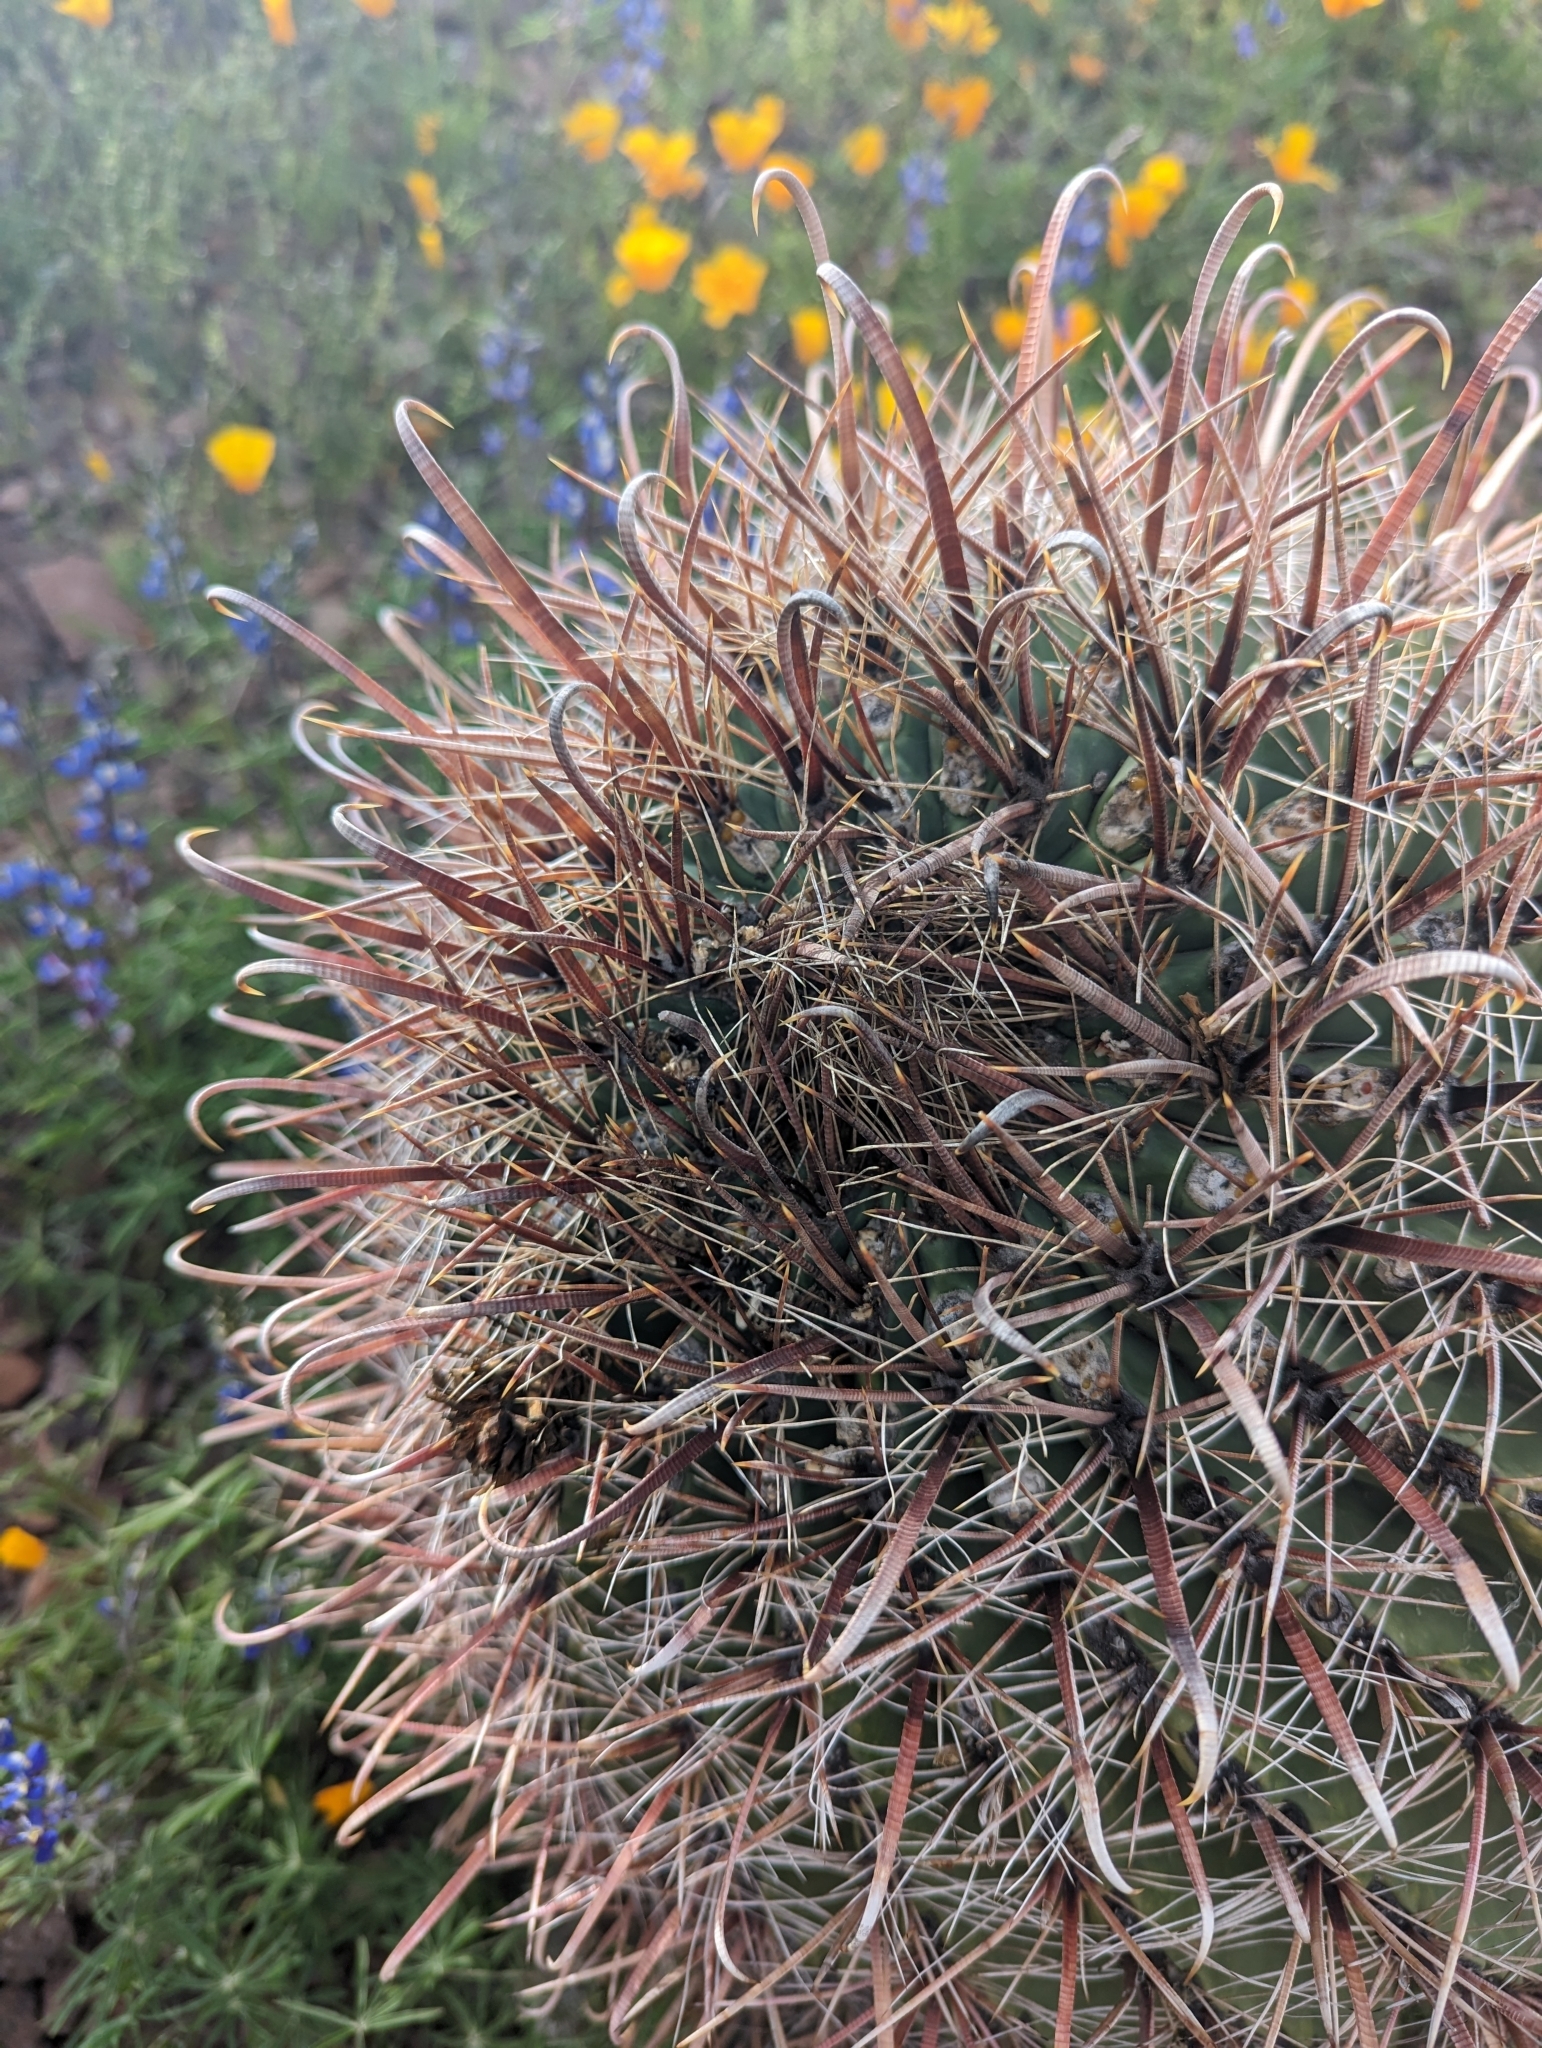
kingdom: Plantae
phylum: Tracheophyta
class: Magnoliopsida
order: Caryophyllales
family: Cactaceae
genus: Ferocactus
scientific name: Ferocactus wislizeni
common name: Candy barrel cactus
